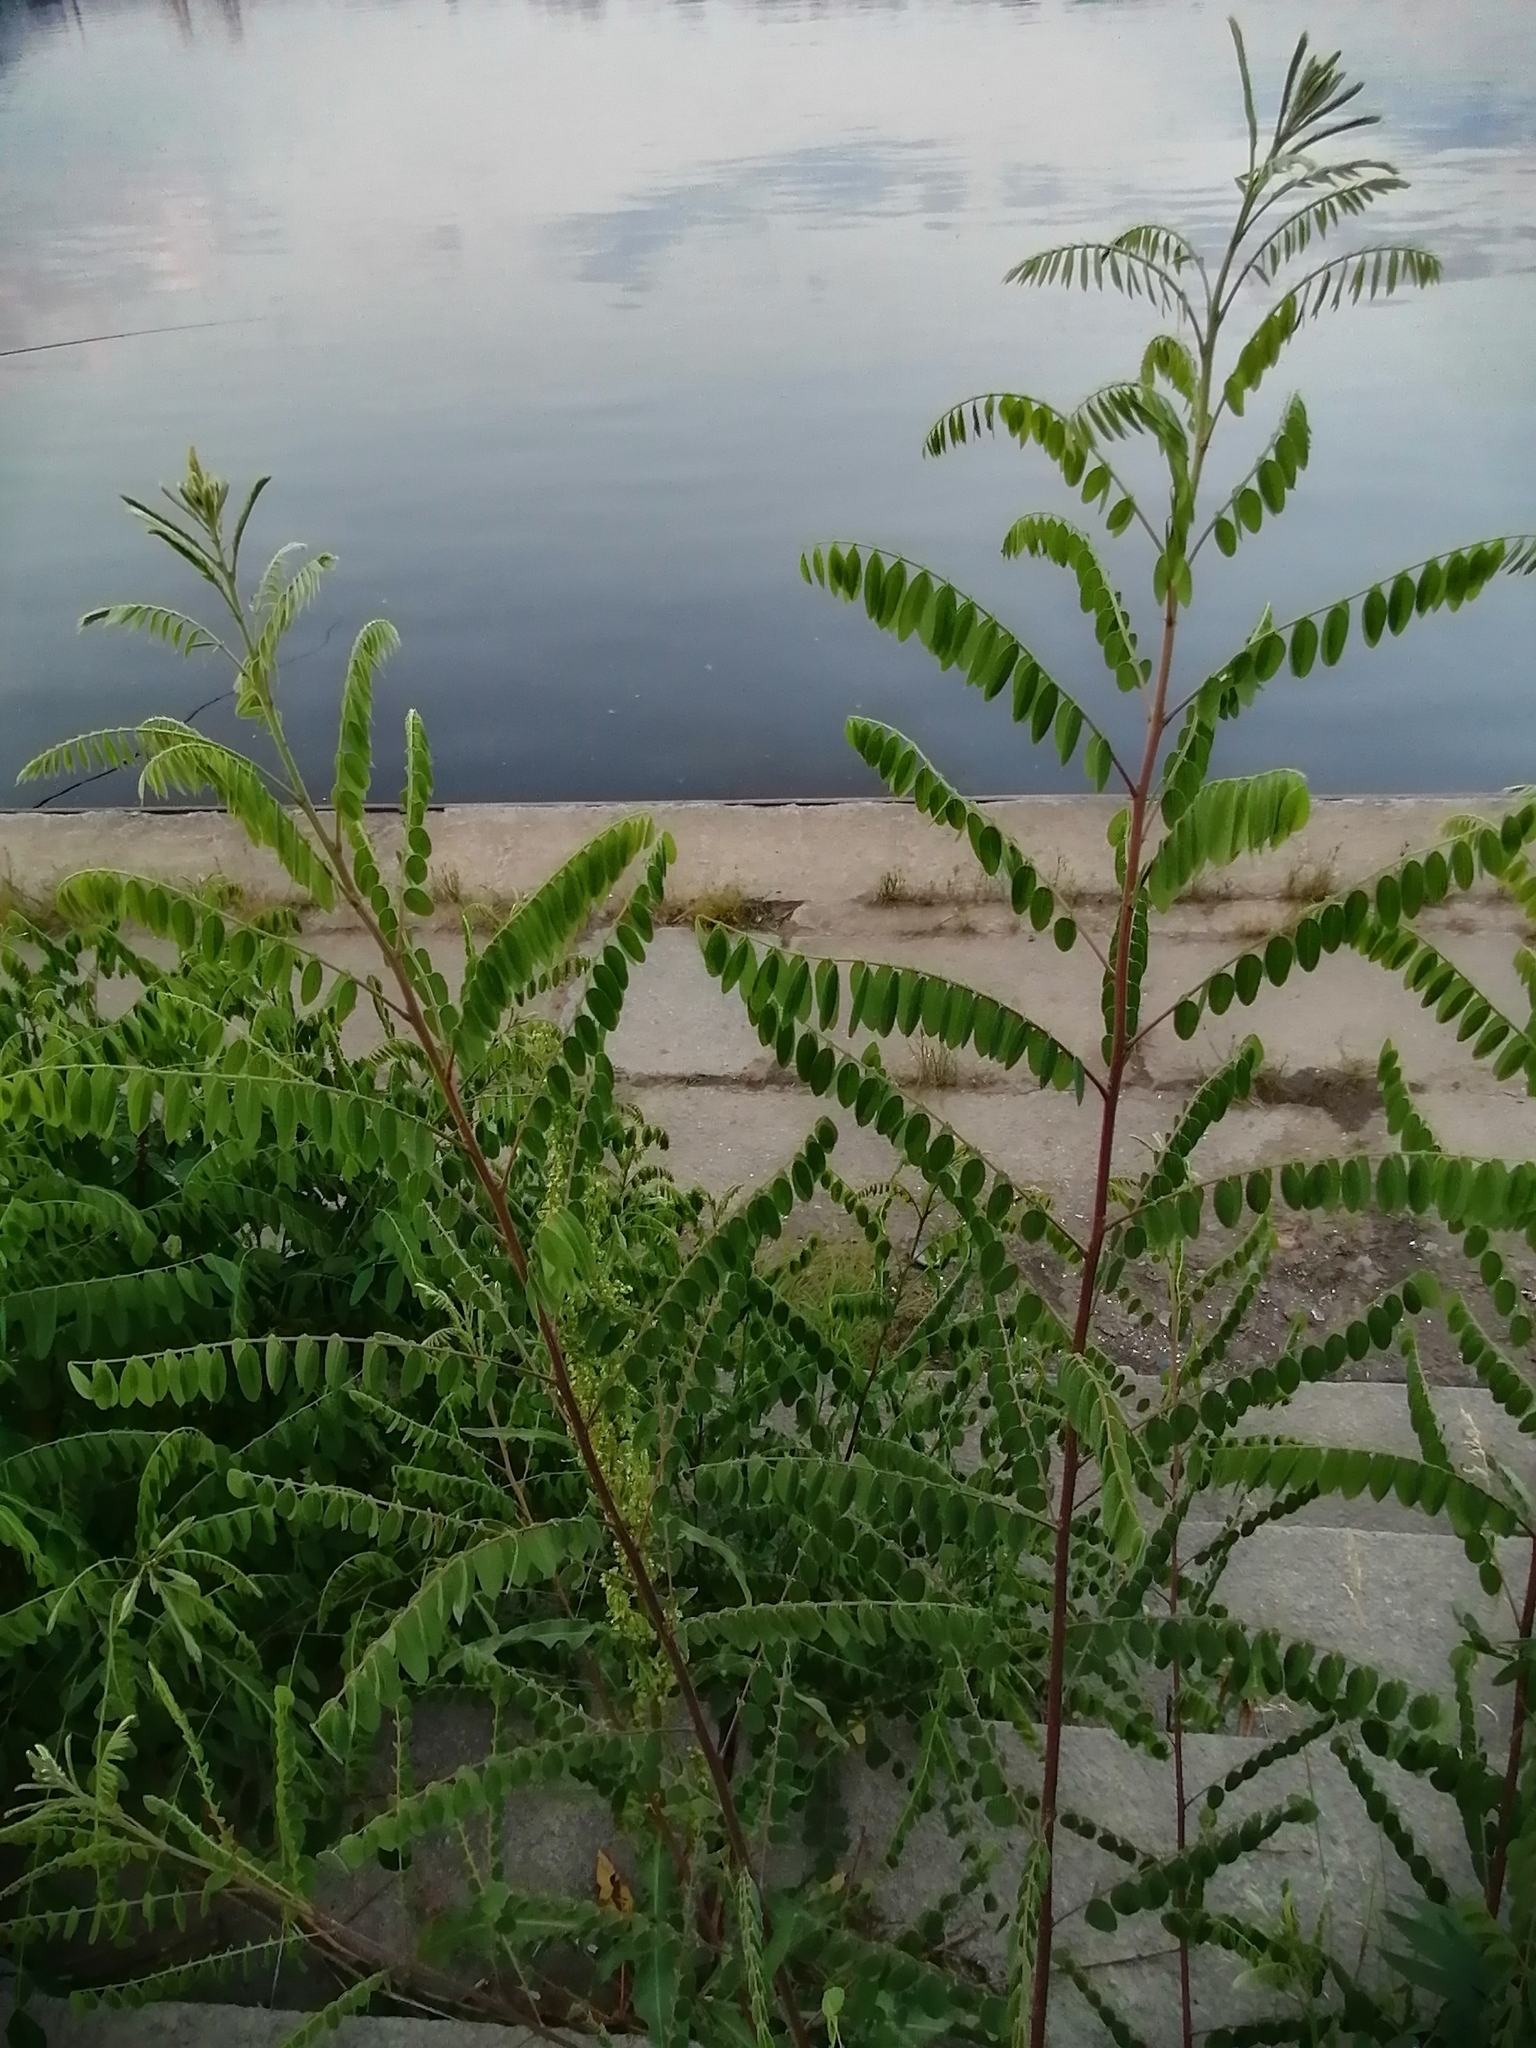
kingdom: Plantae
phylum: Tracheophyta
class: Magnoliopsida
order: Fabales
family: Fabaceae
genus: Amorpha
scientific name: Amorpha fruticosa
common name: False indigo
